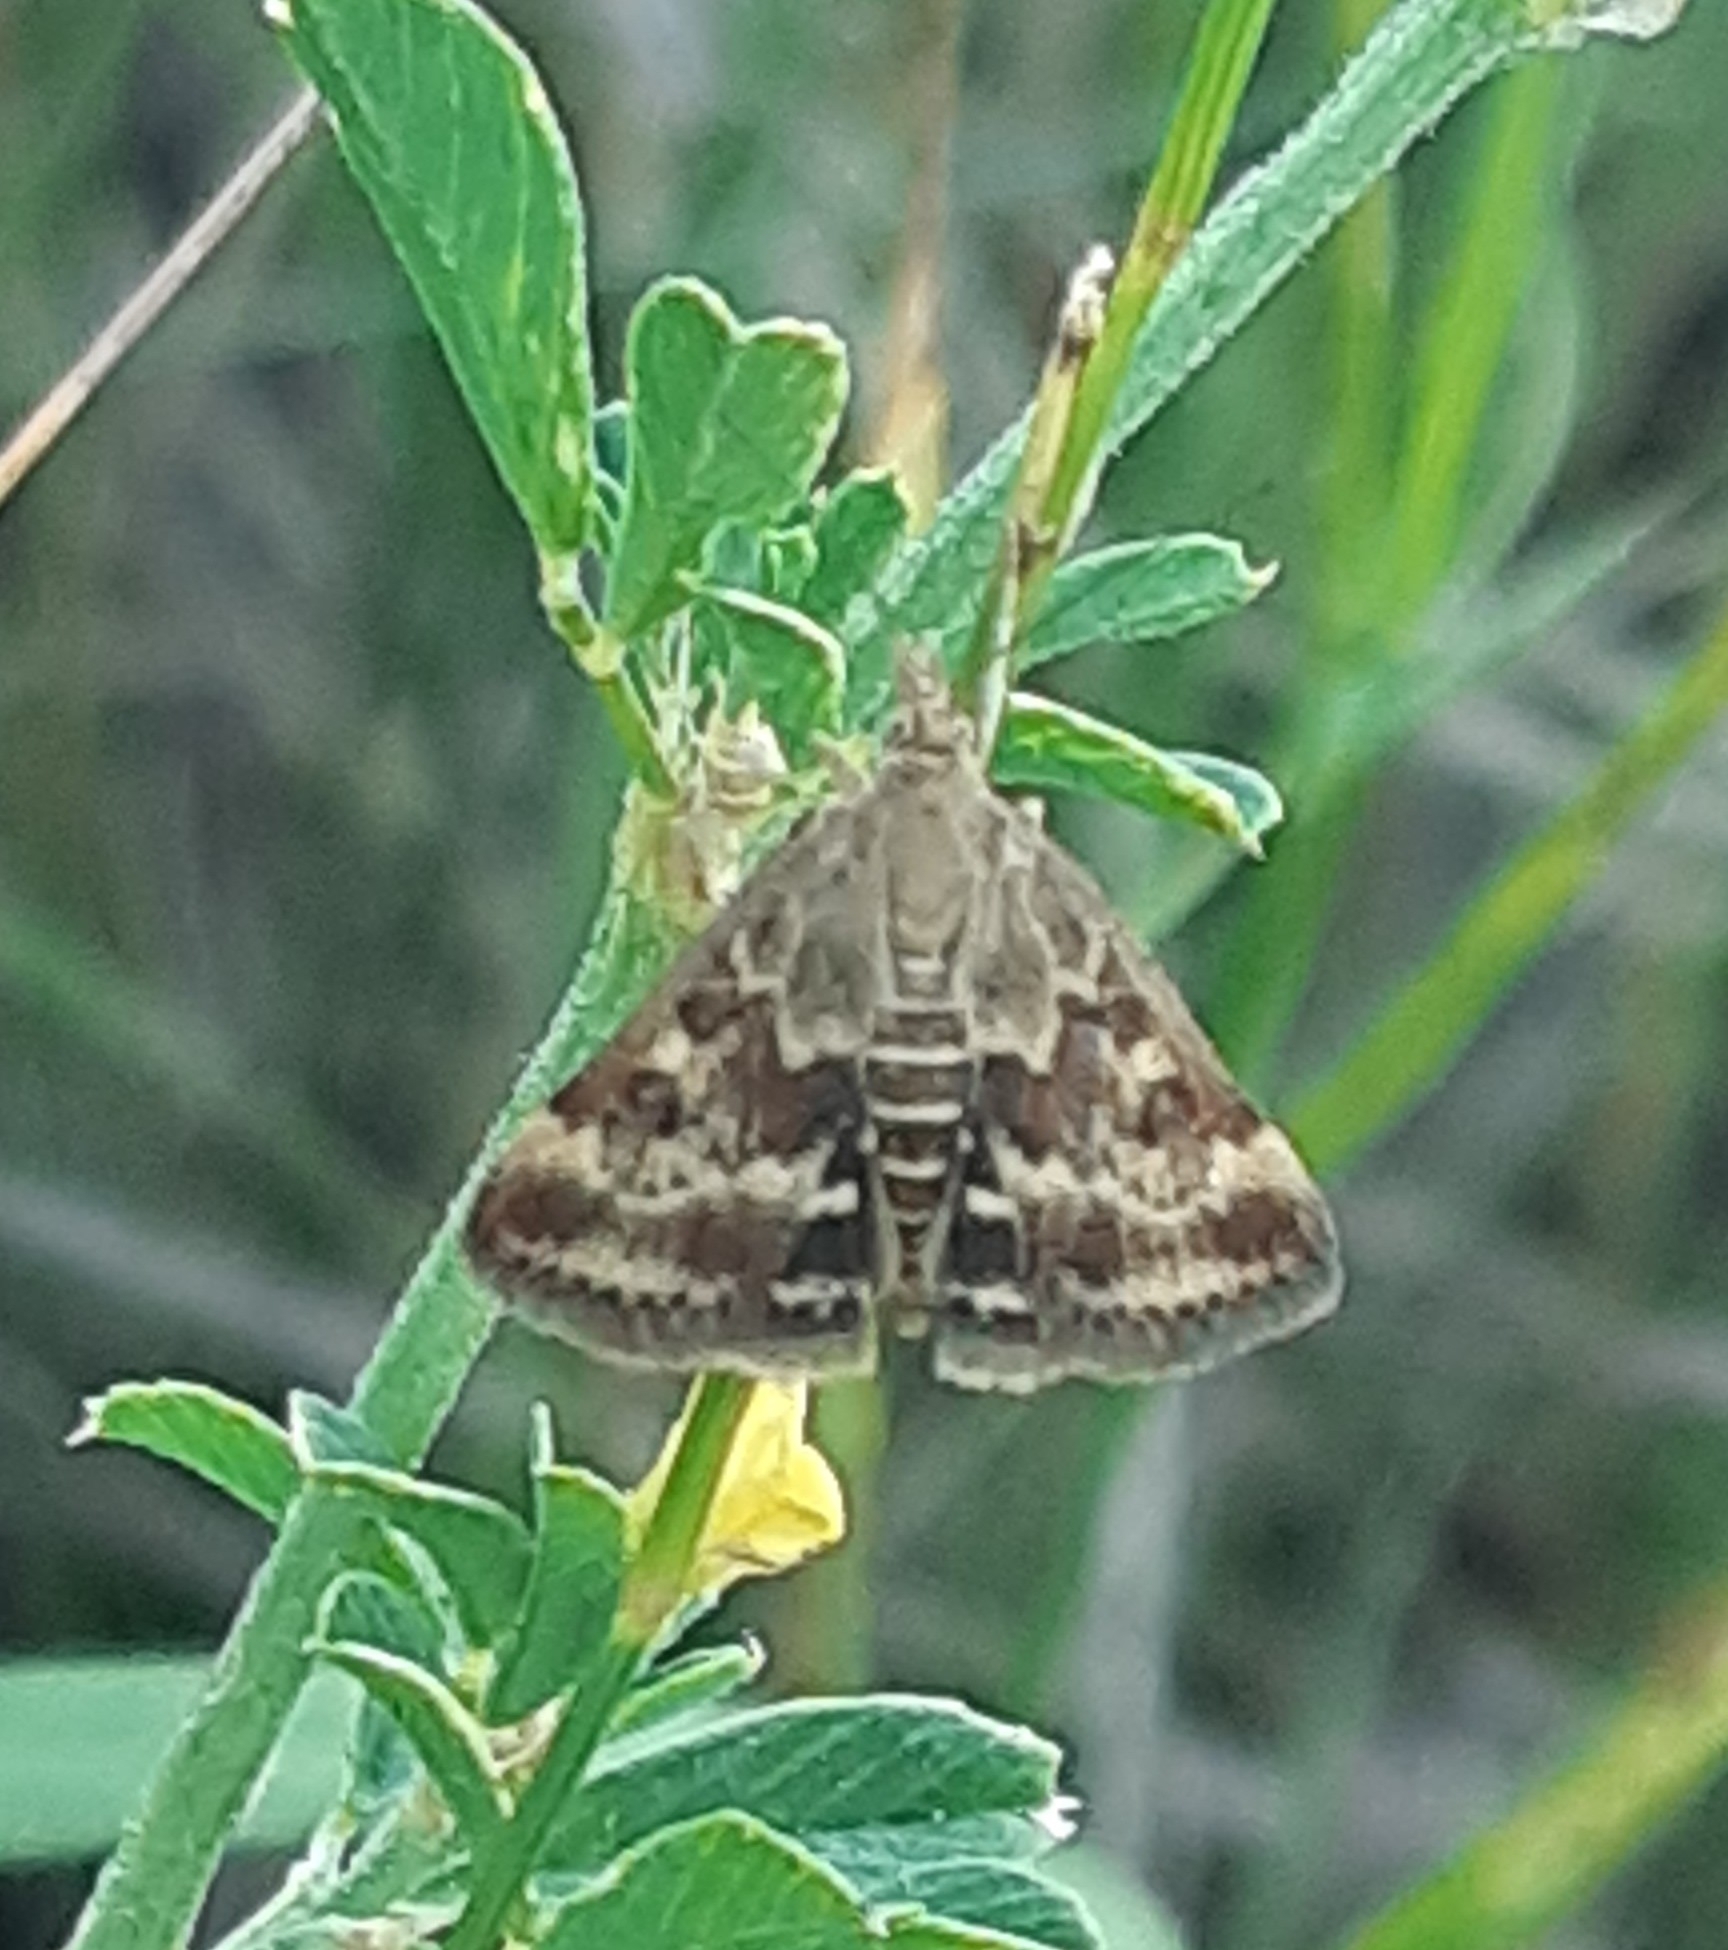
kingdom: Animalia
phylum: Arthropoda
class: Insecta
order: Lepidoptera
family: Crambidae
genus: Pyrausta
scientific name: Pyrausta despicata
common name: Straw-barred pearl
